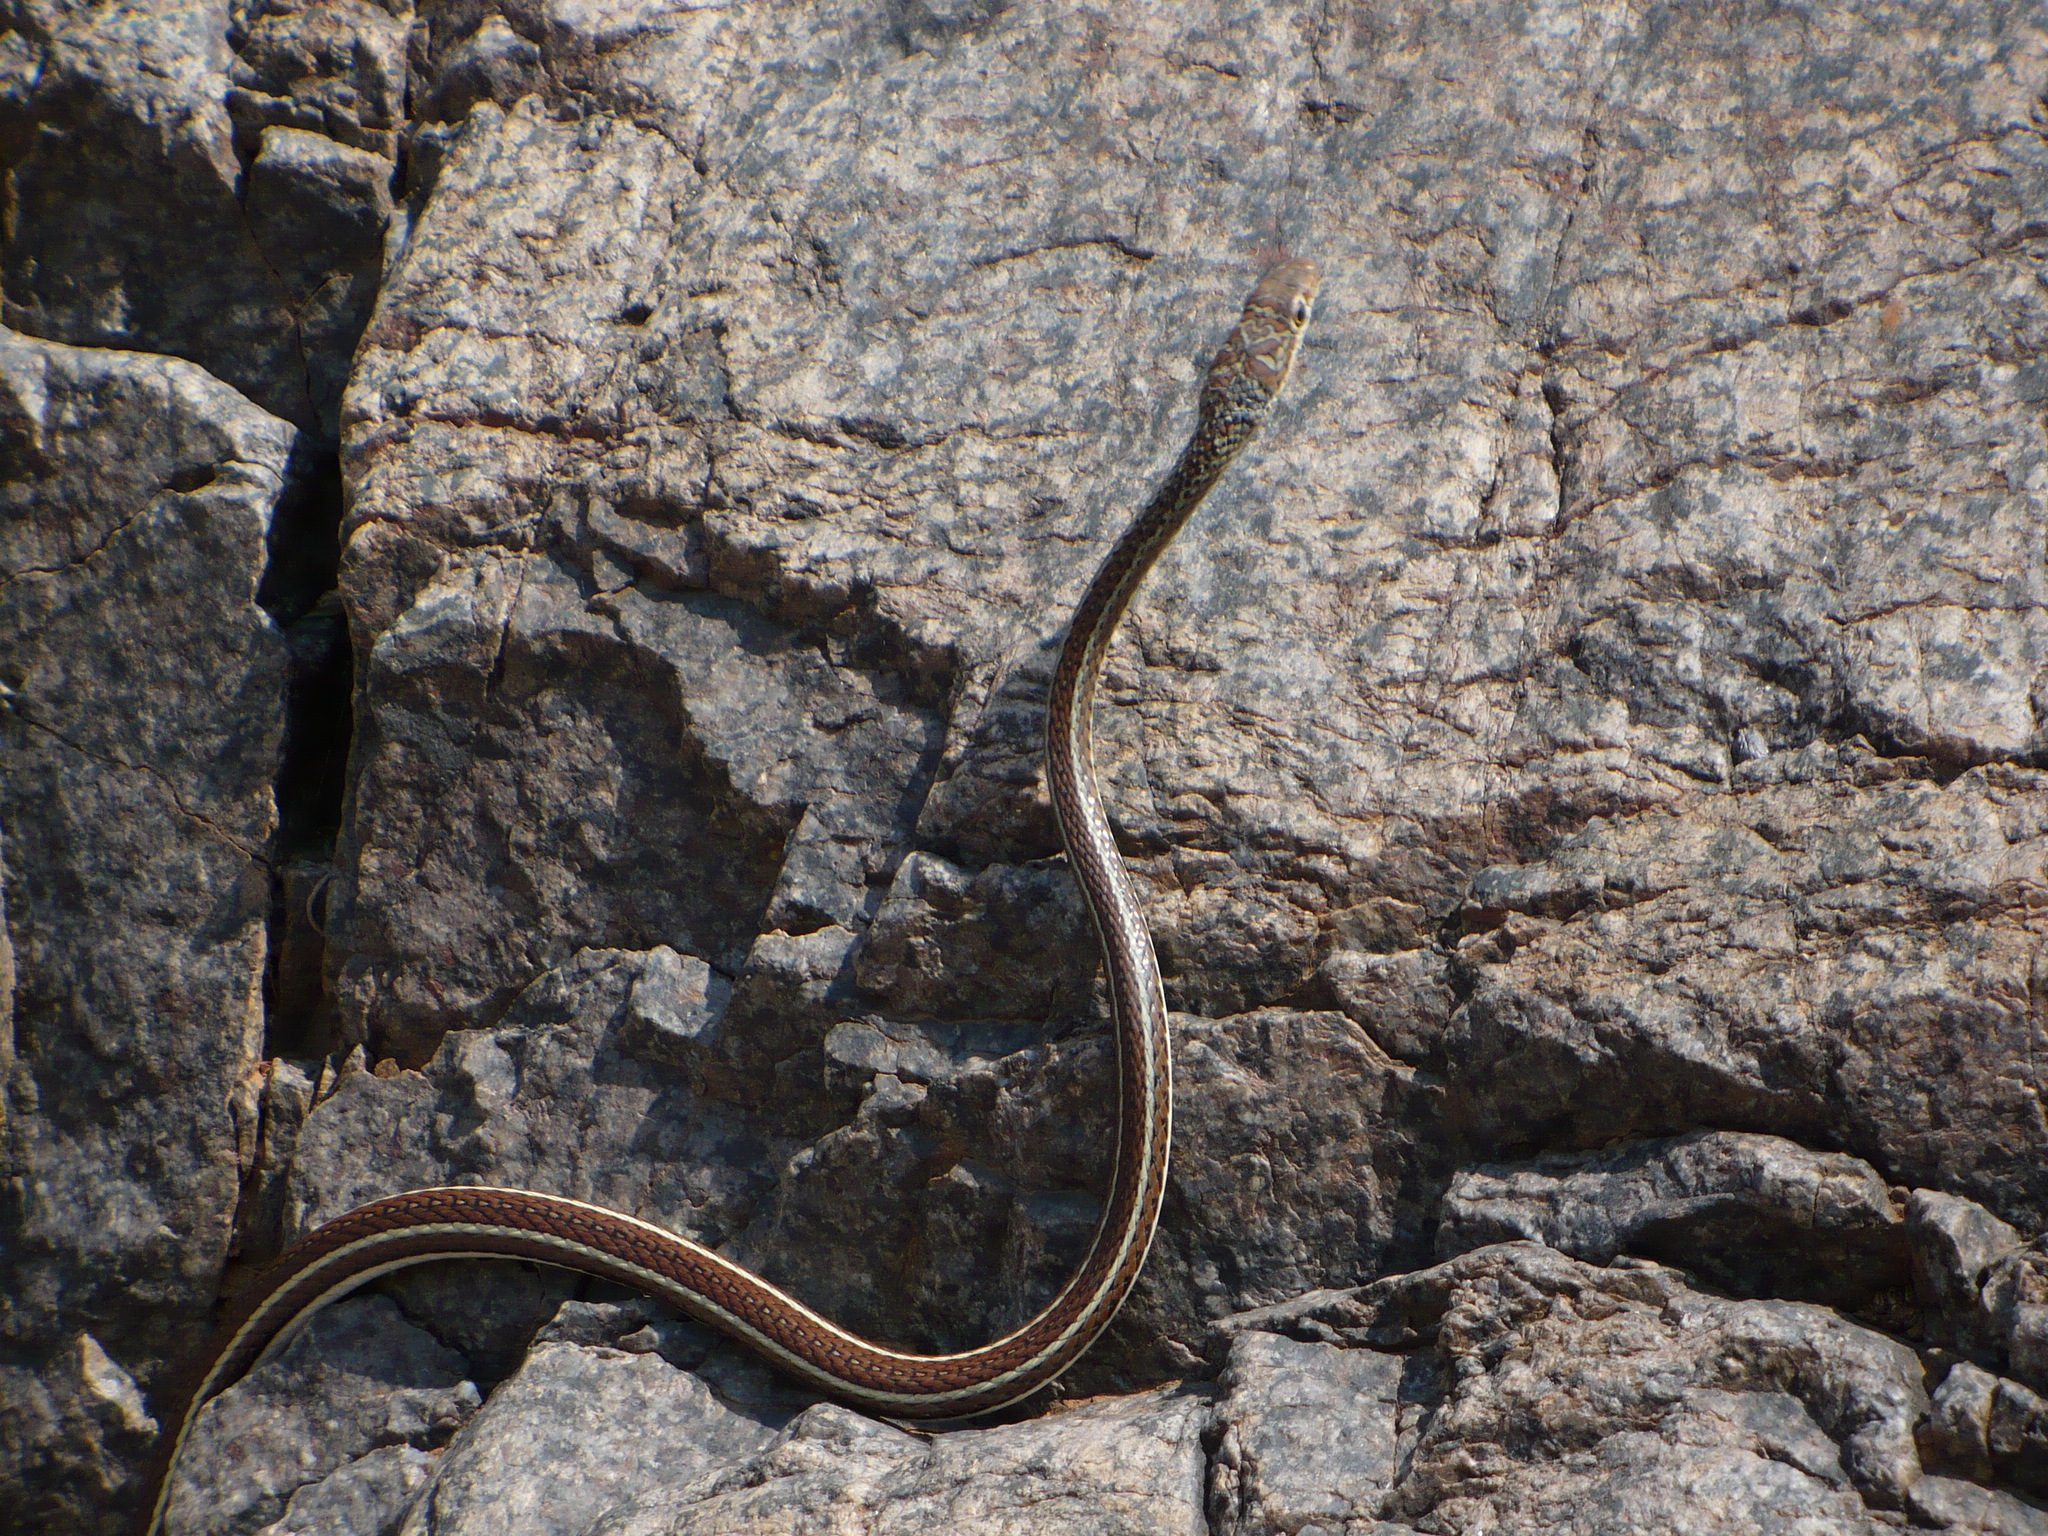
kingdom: Animalia
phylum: Chordata
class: Squamata
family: Psammophiidae
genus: Psammophis
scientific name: Psammophis subtaeniatus
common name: Stripe-bellied sand snake
